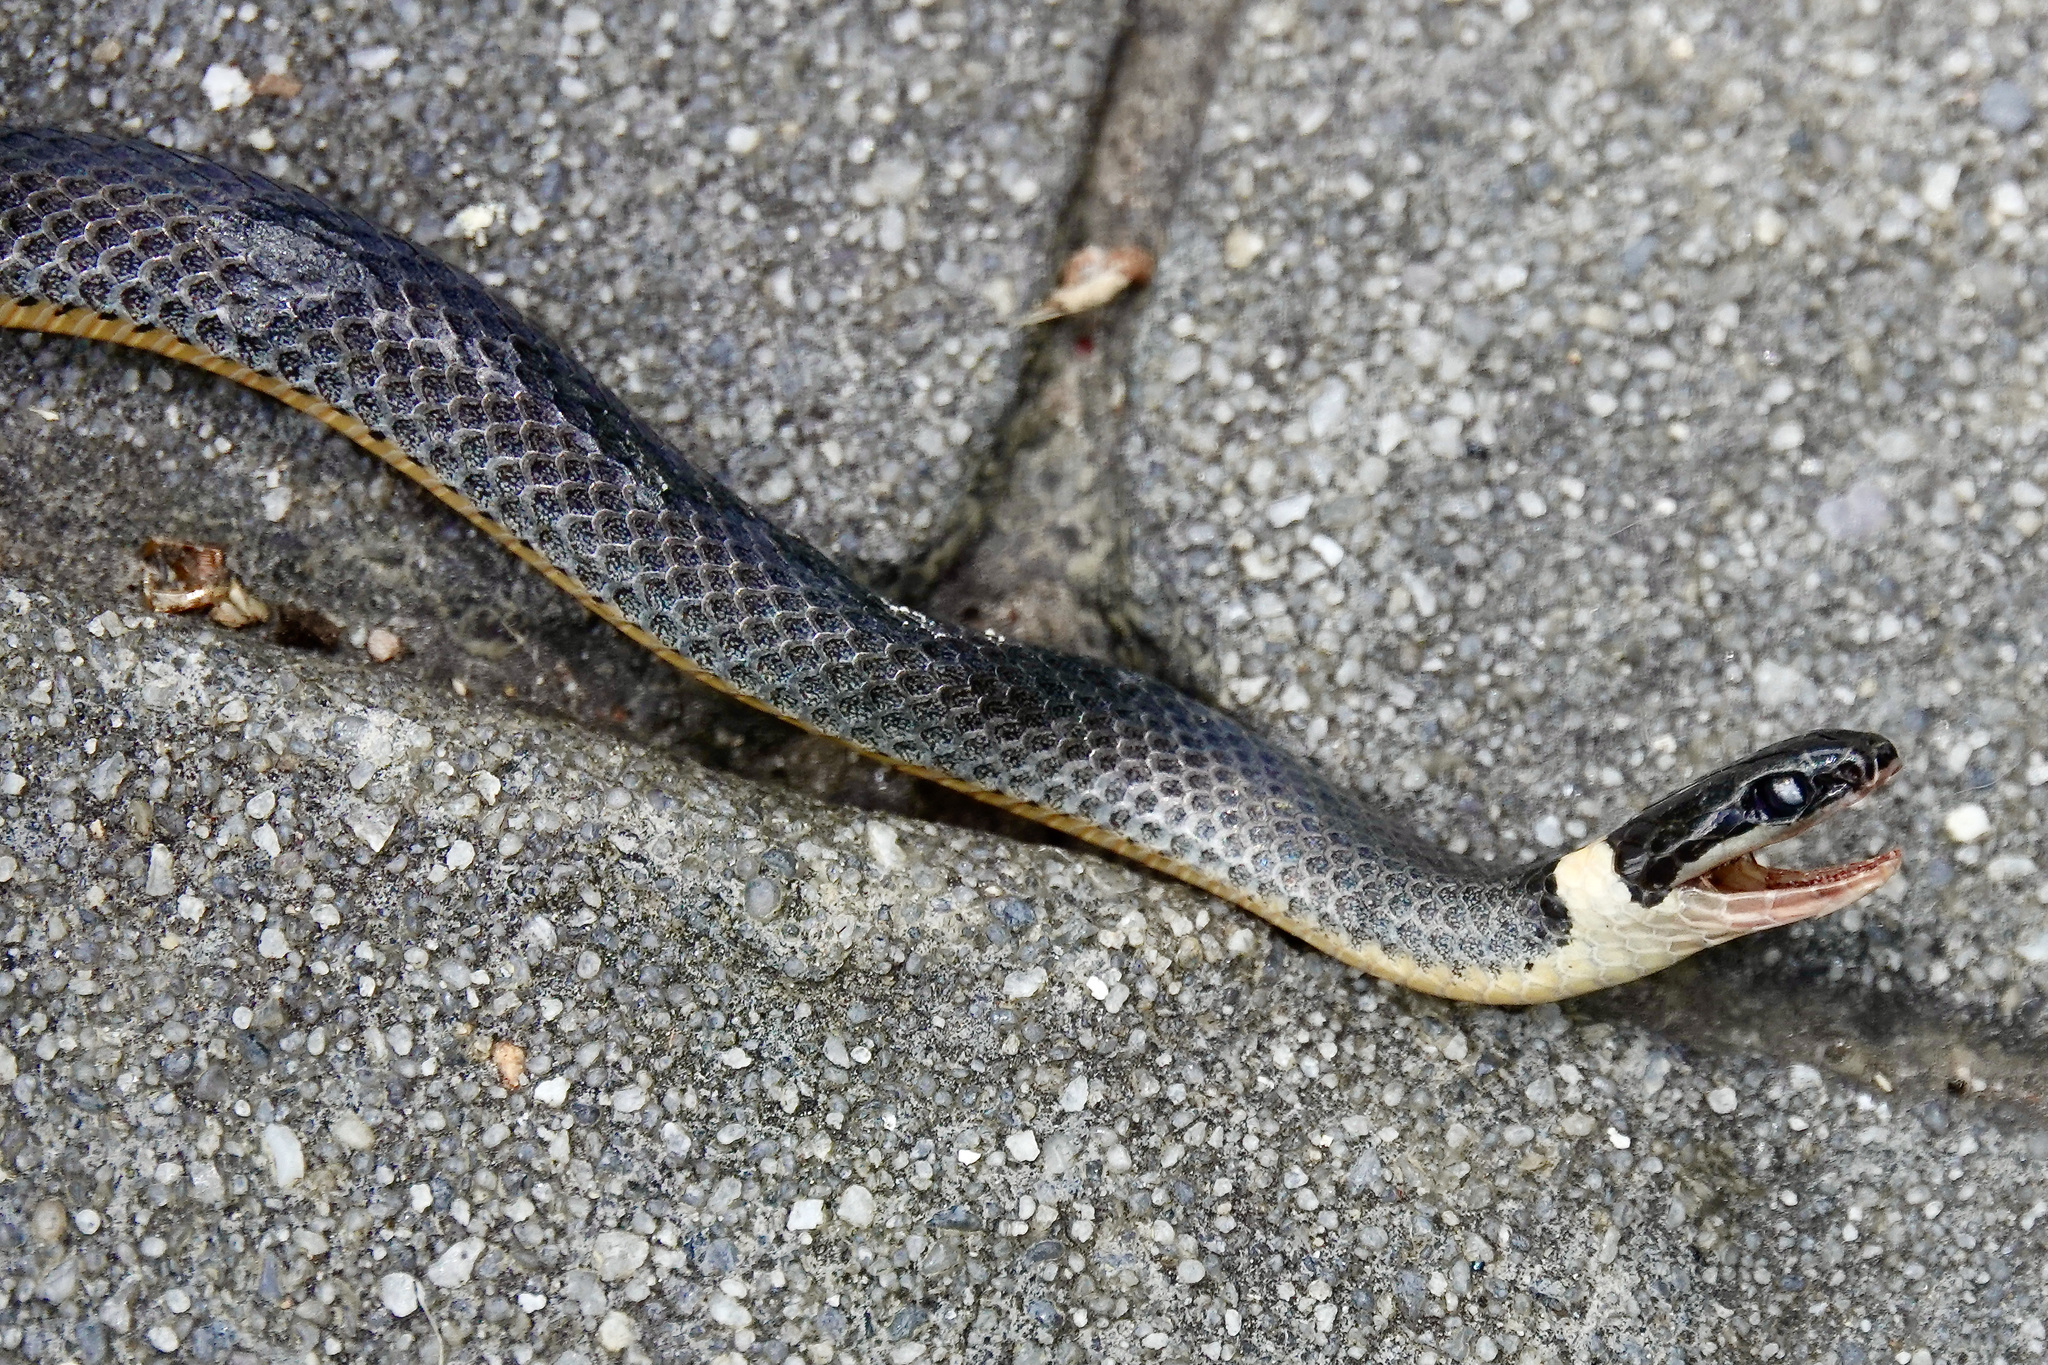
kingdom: Animalia
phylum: Chordata
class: Squamata
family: Colubridae
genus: Diadophis
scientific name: Diadophis punctatus
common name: Ringneck snake
